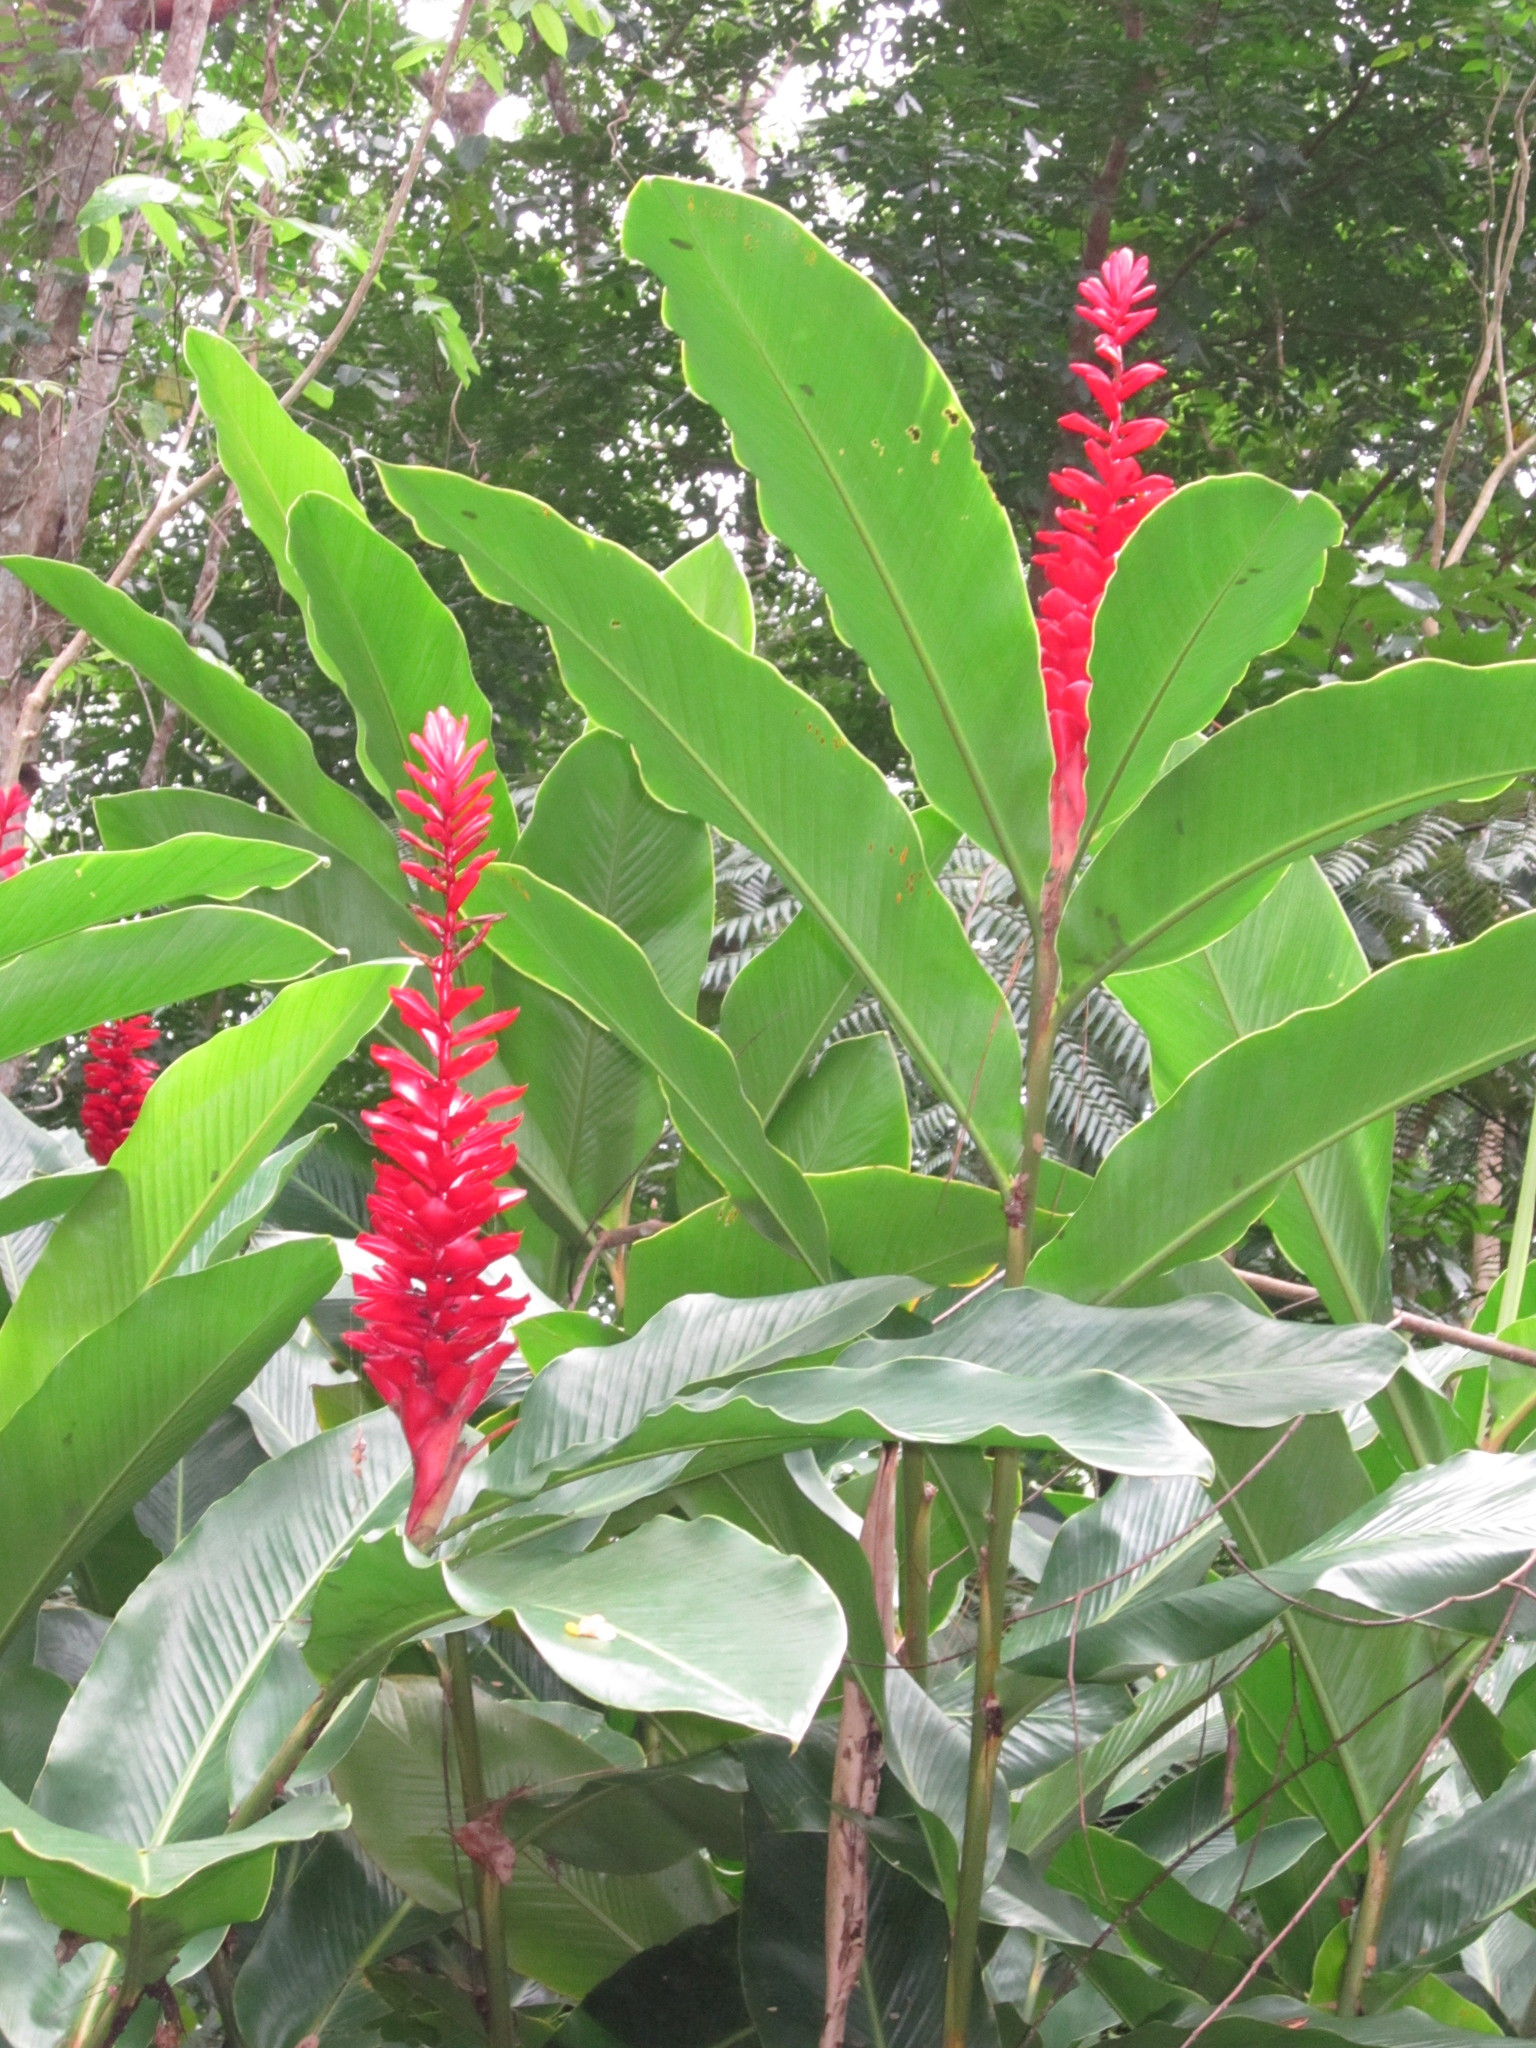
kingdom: Plantae
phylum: Tracheophyta
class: Liliopsida
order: Zingiberales
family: Zingiberaceae
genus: Alpinia
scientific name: Alpinia purpurata
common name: Red ginger
